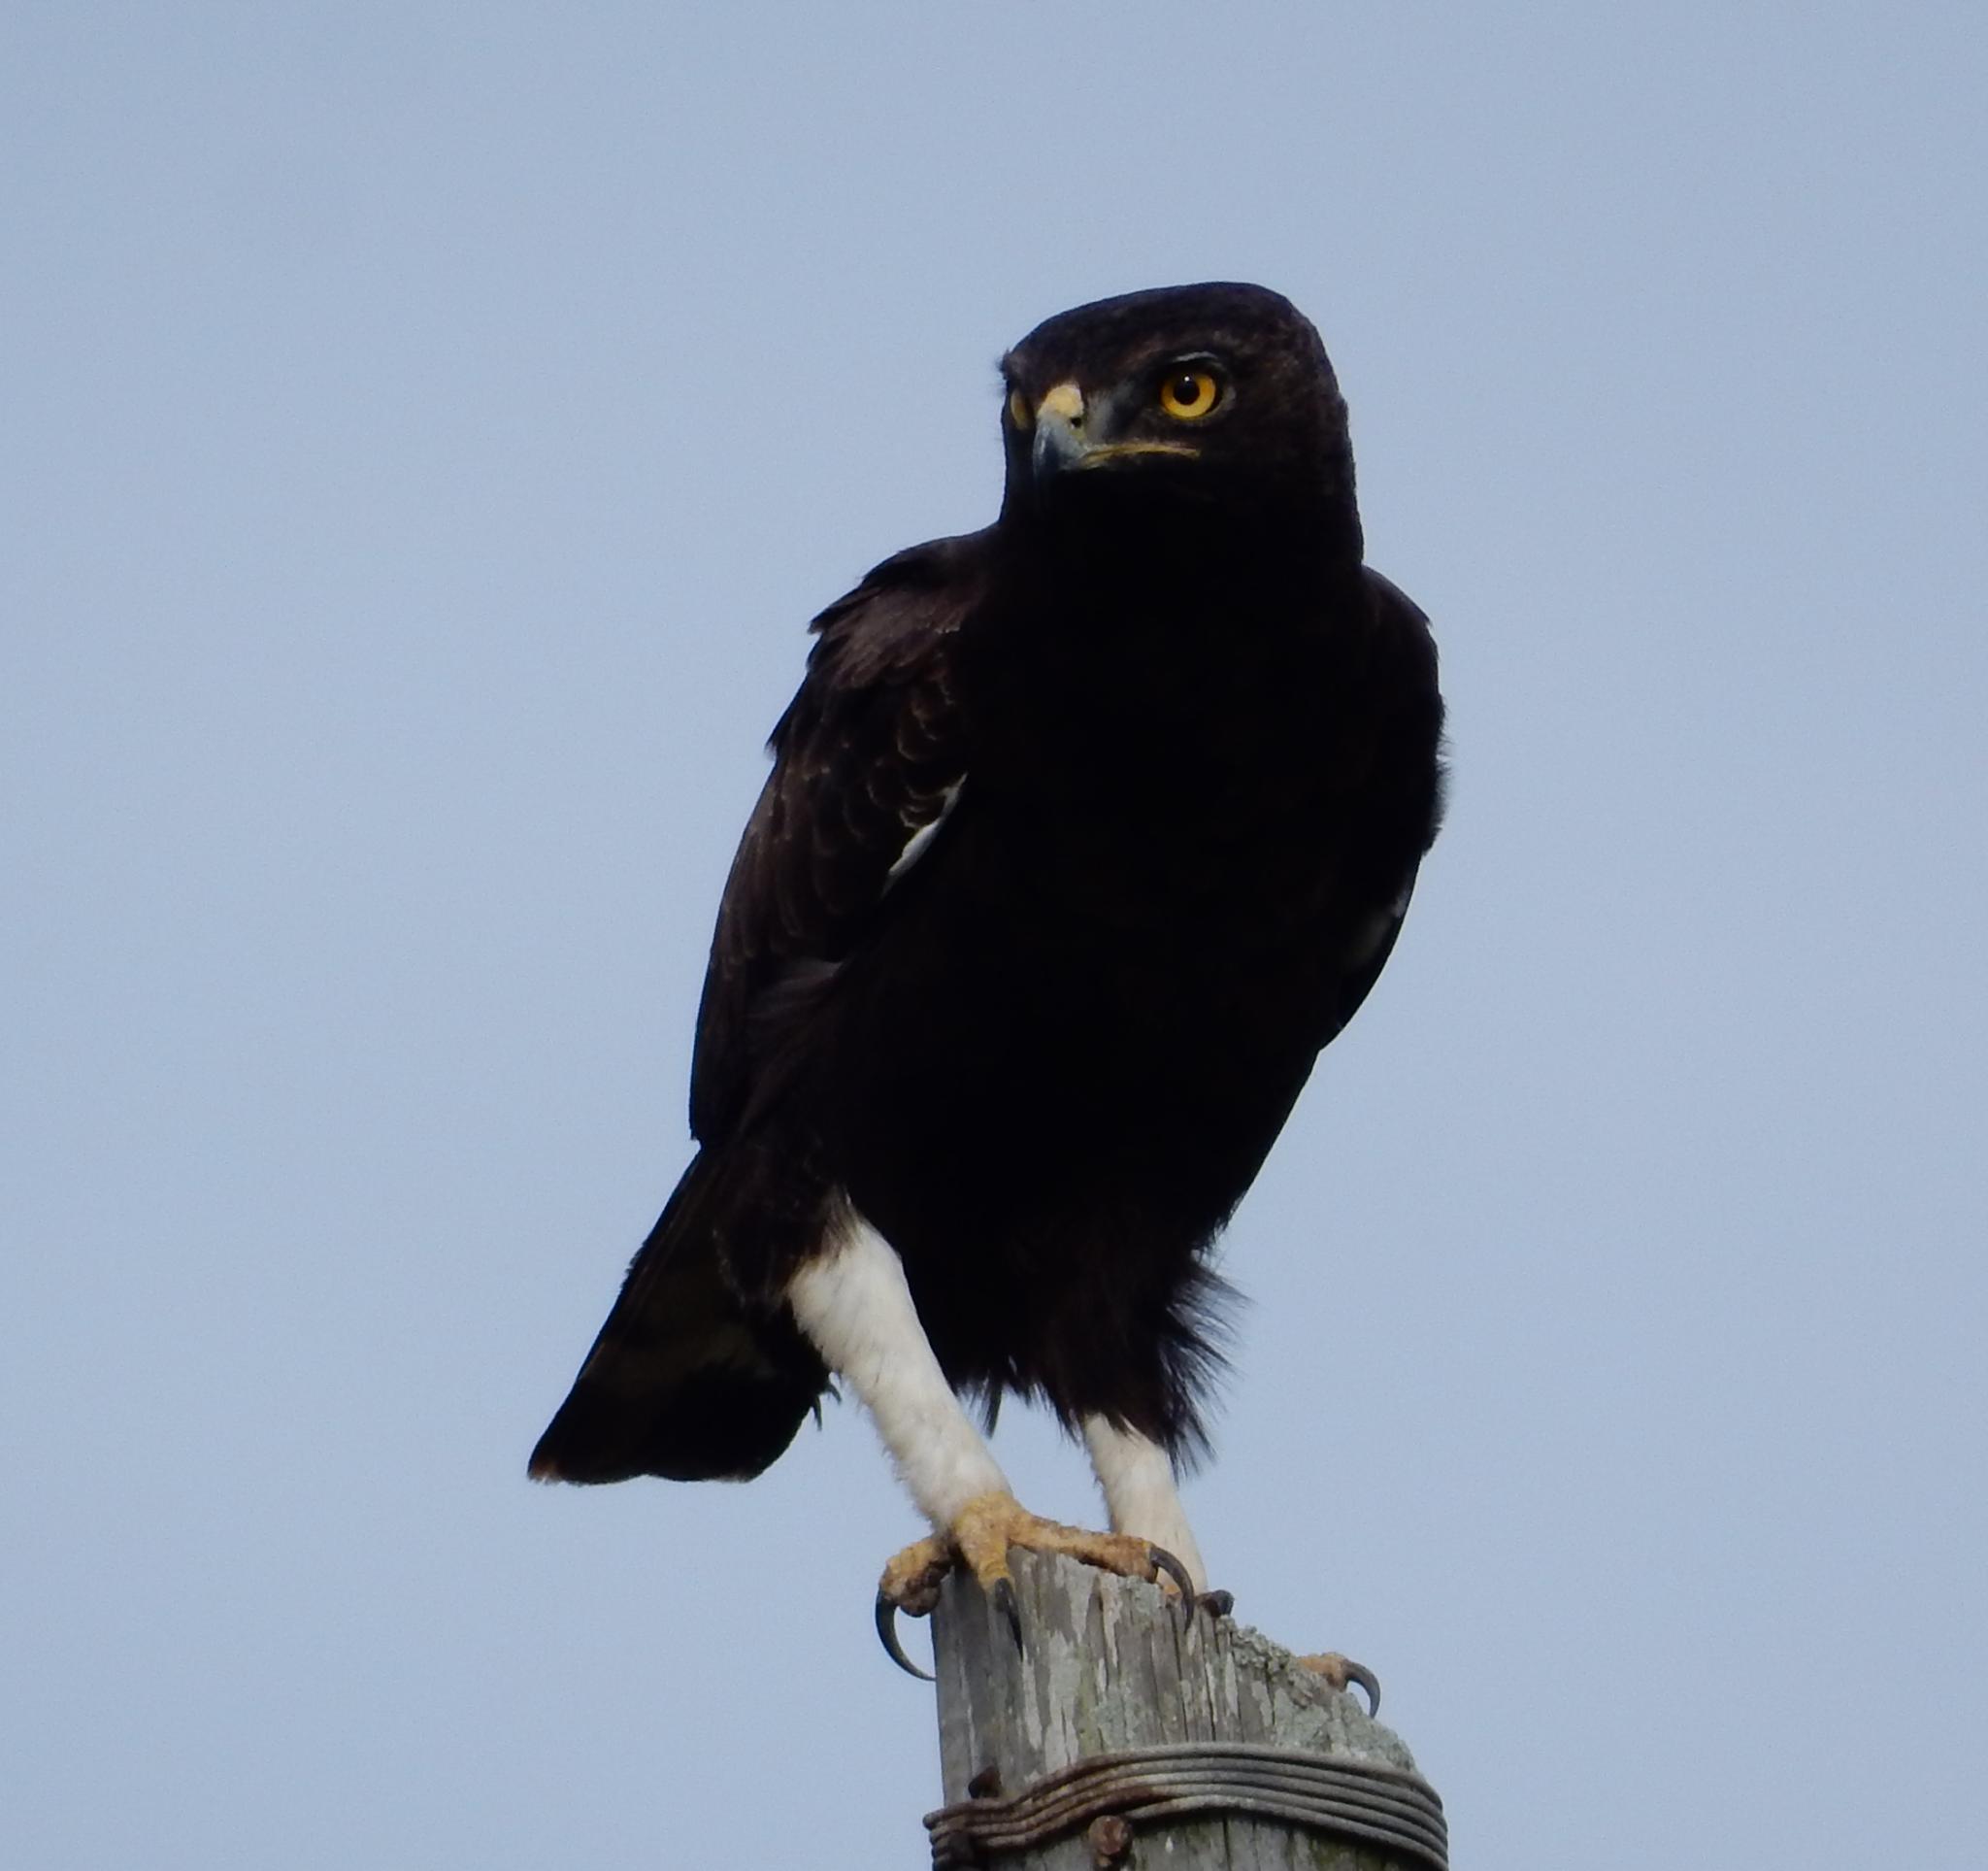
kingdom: Animalia
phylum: Chordata
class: Aves
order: Accipitriformes
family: Accipitridae
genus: Lophaetus
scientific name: Lophaetus occipitalis
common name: Long-crested eagle
